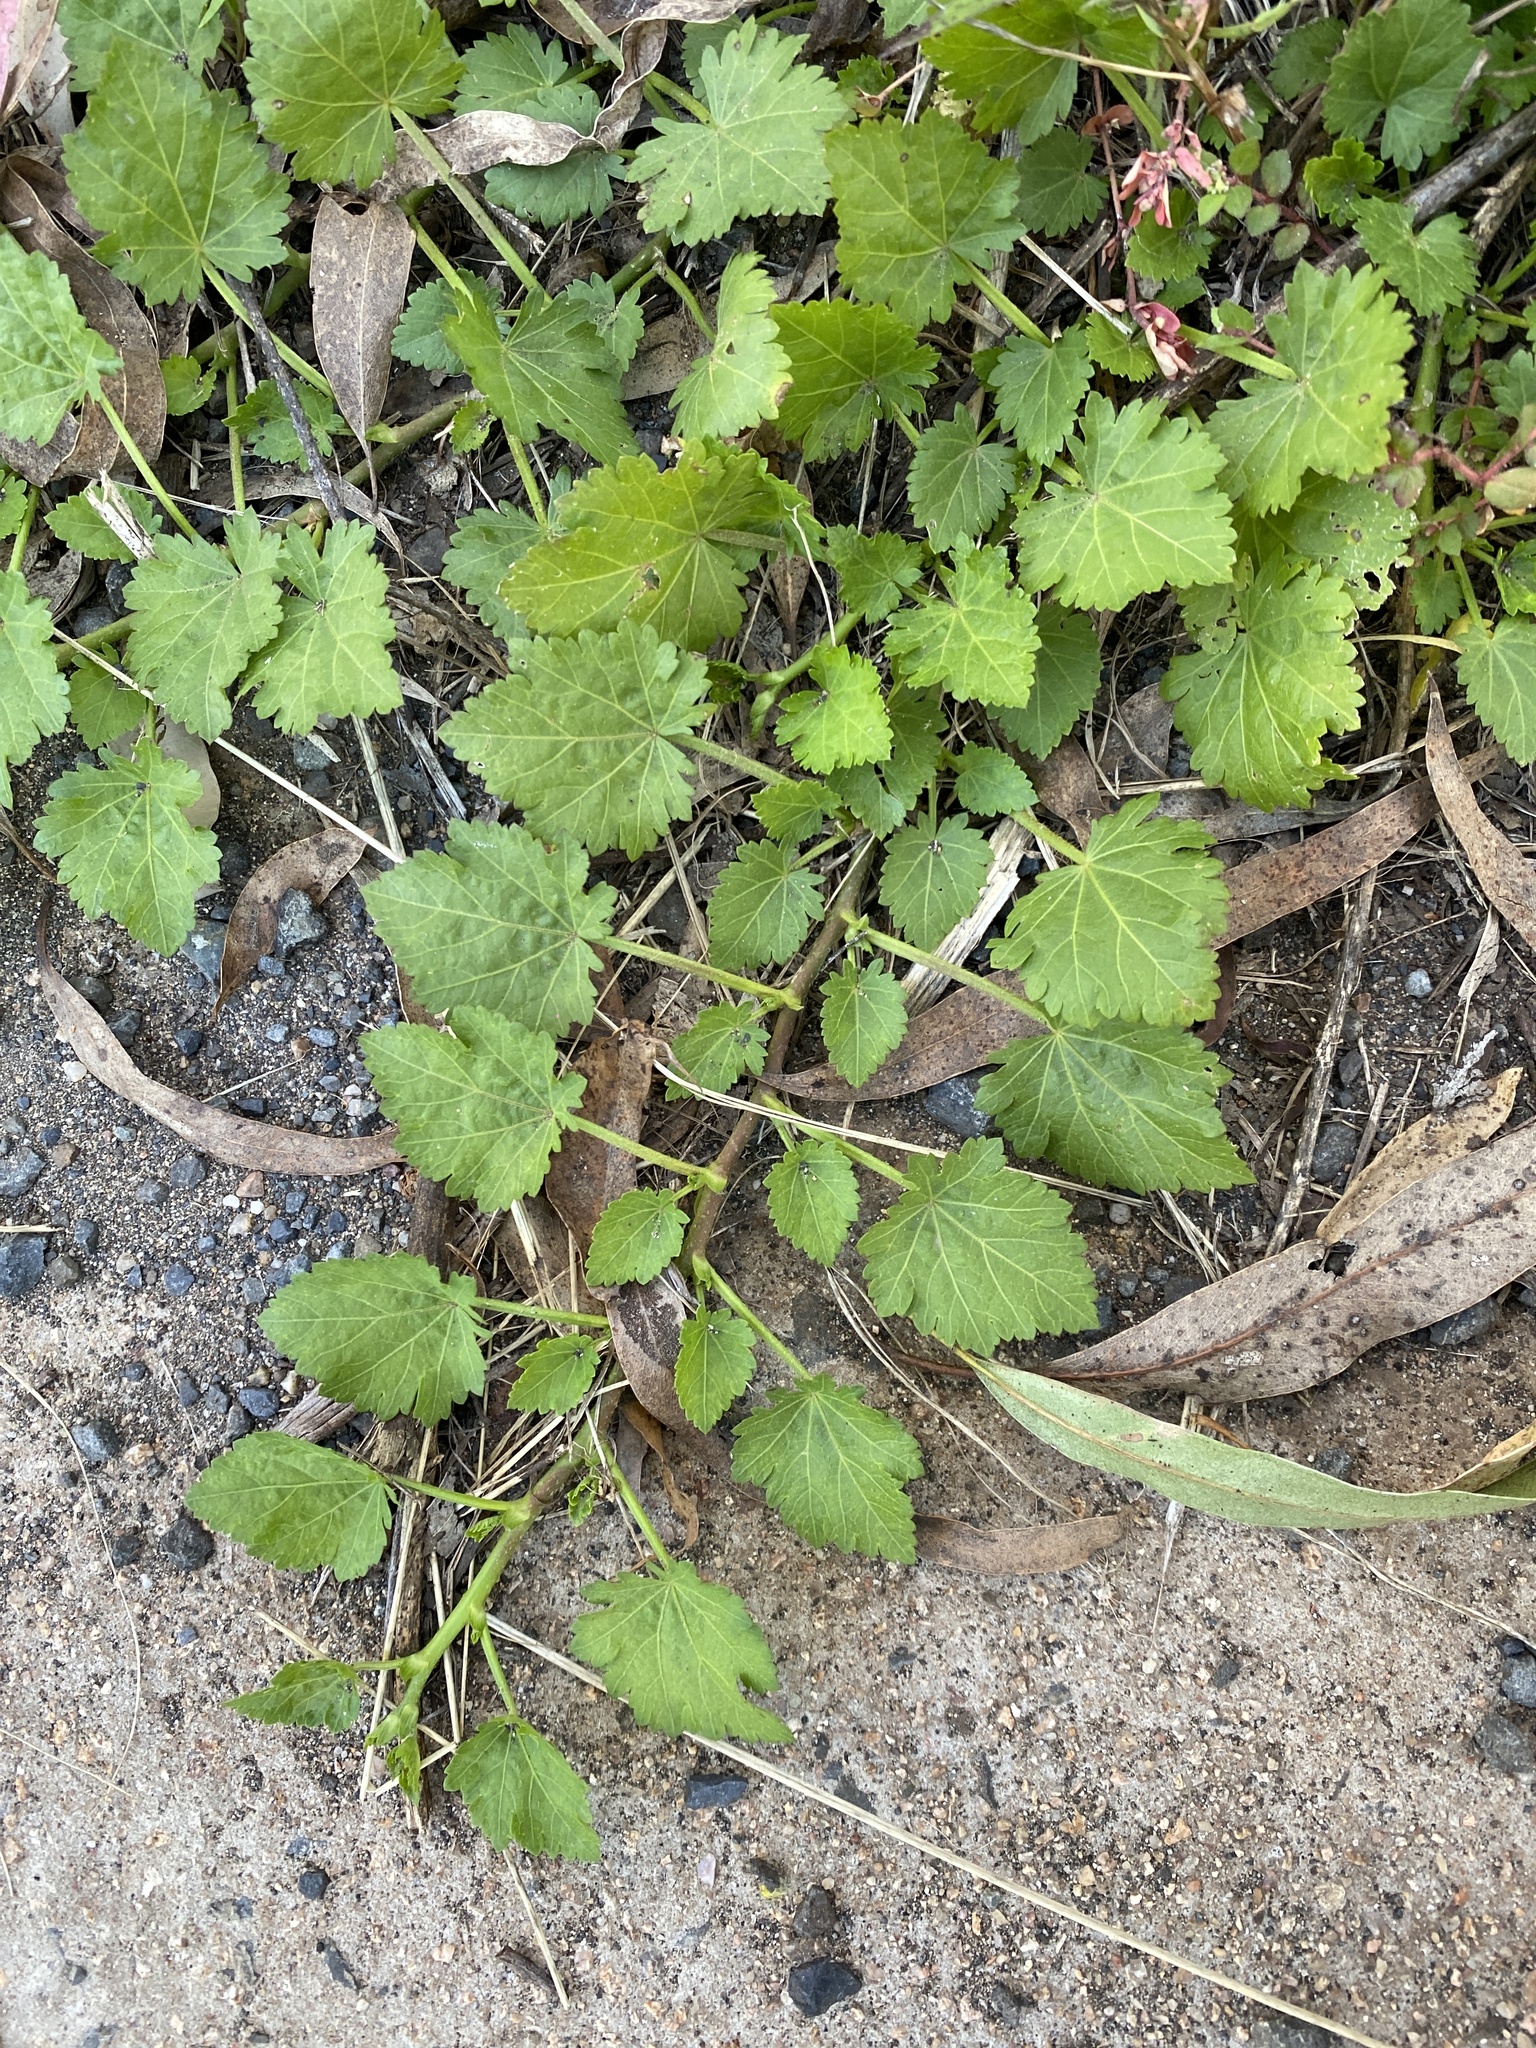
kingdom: Plantae
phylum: Tracheophyta
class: Magnoliopsida
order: Malvales
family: Malvaceae
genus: Modiola
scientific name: Modiola caroliniana
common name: Carolina bristlemallow
